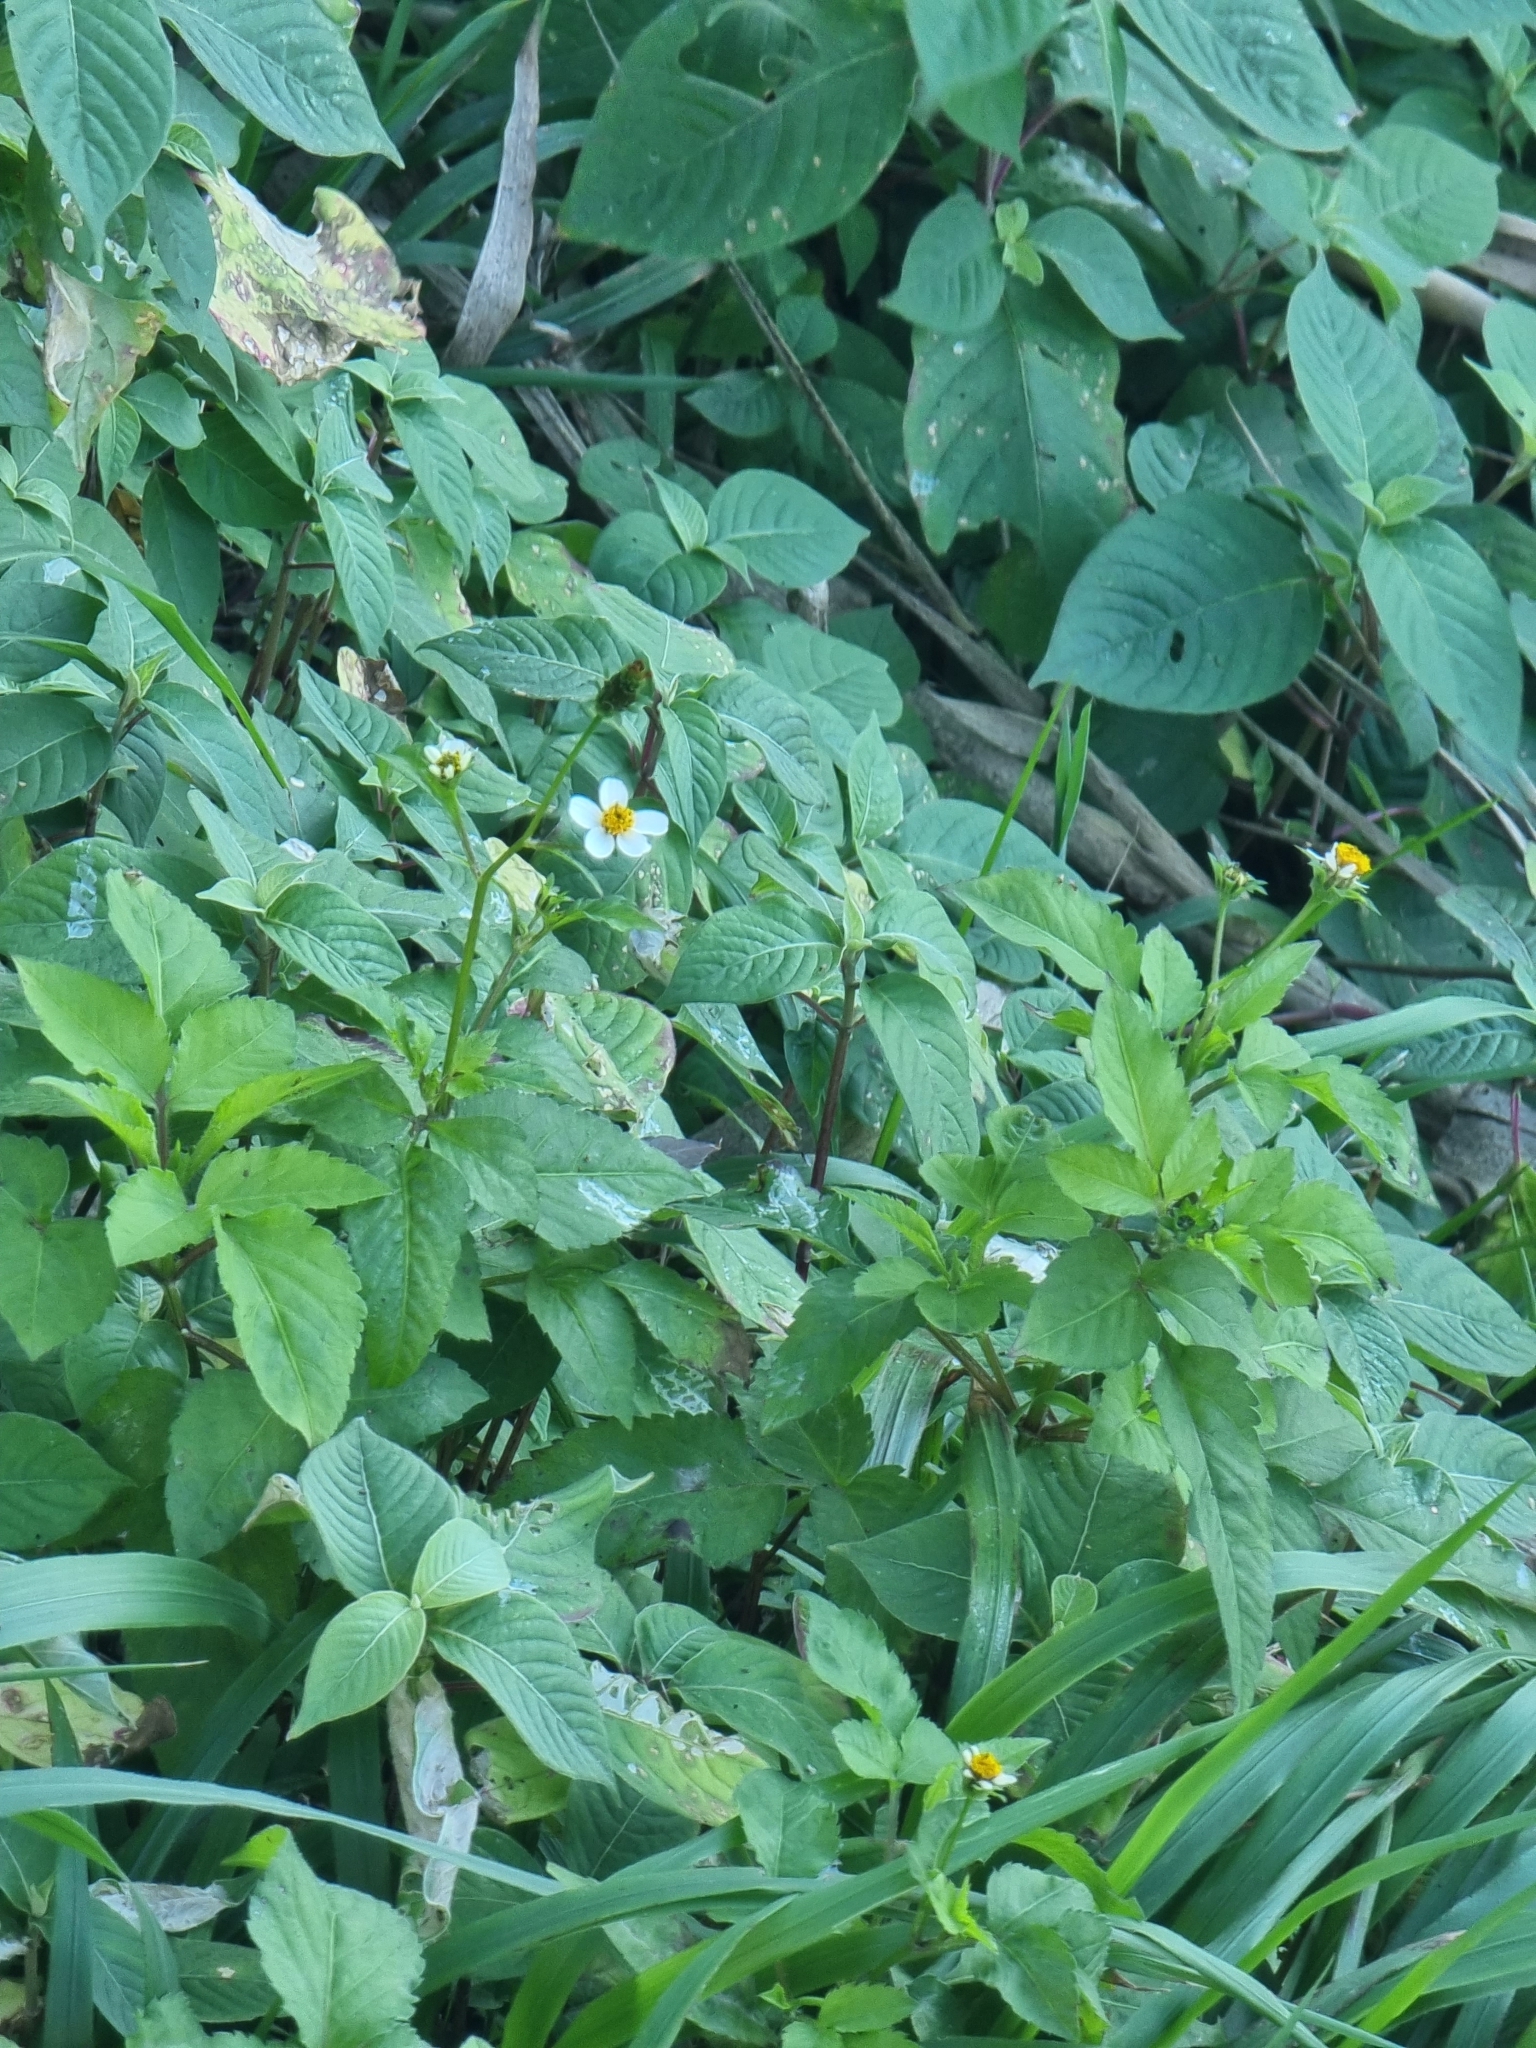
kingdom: Plantae
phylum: Tracheophyta
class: Magnoliopsida
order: Asterales
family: Asteraceae
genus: Bidens
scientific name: Bidens pilosa
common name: Black-jack
